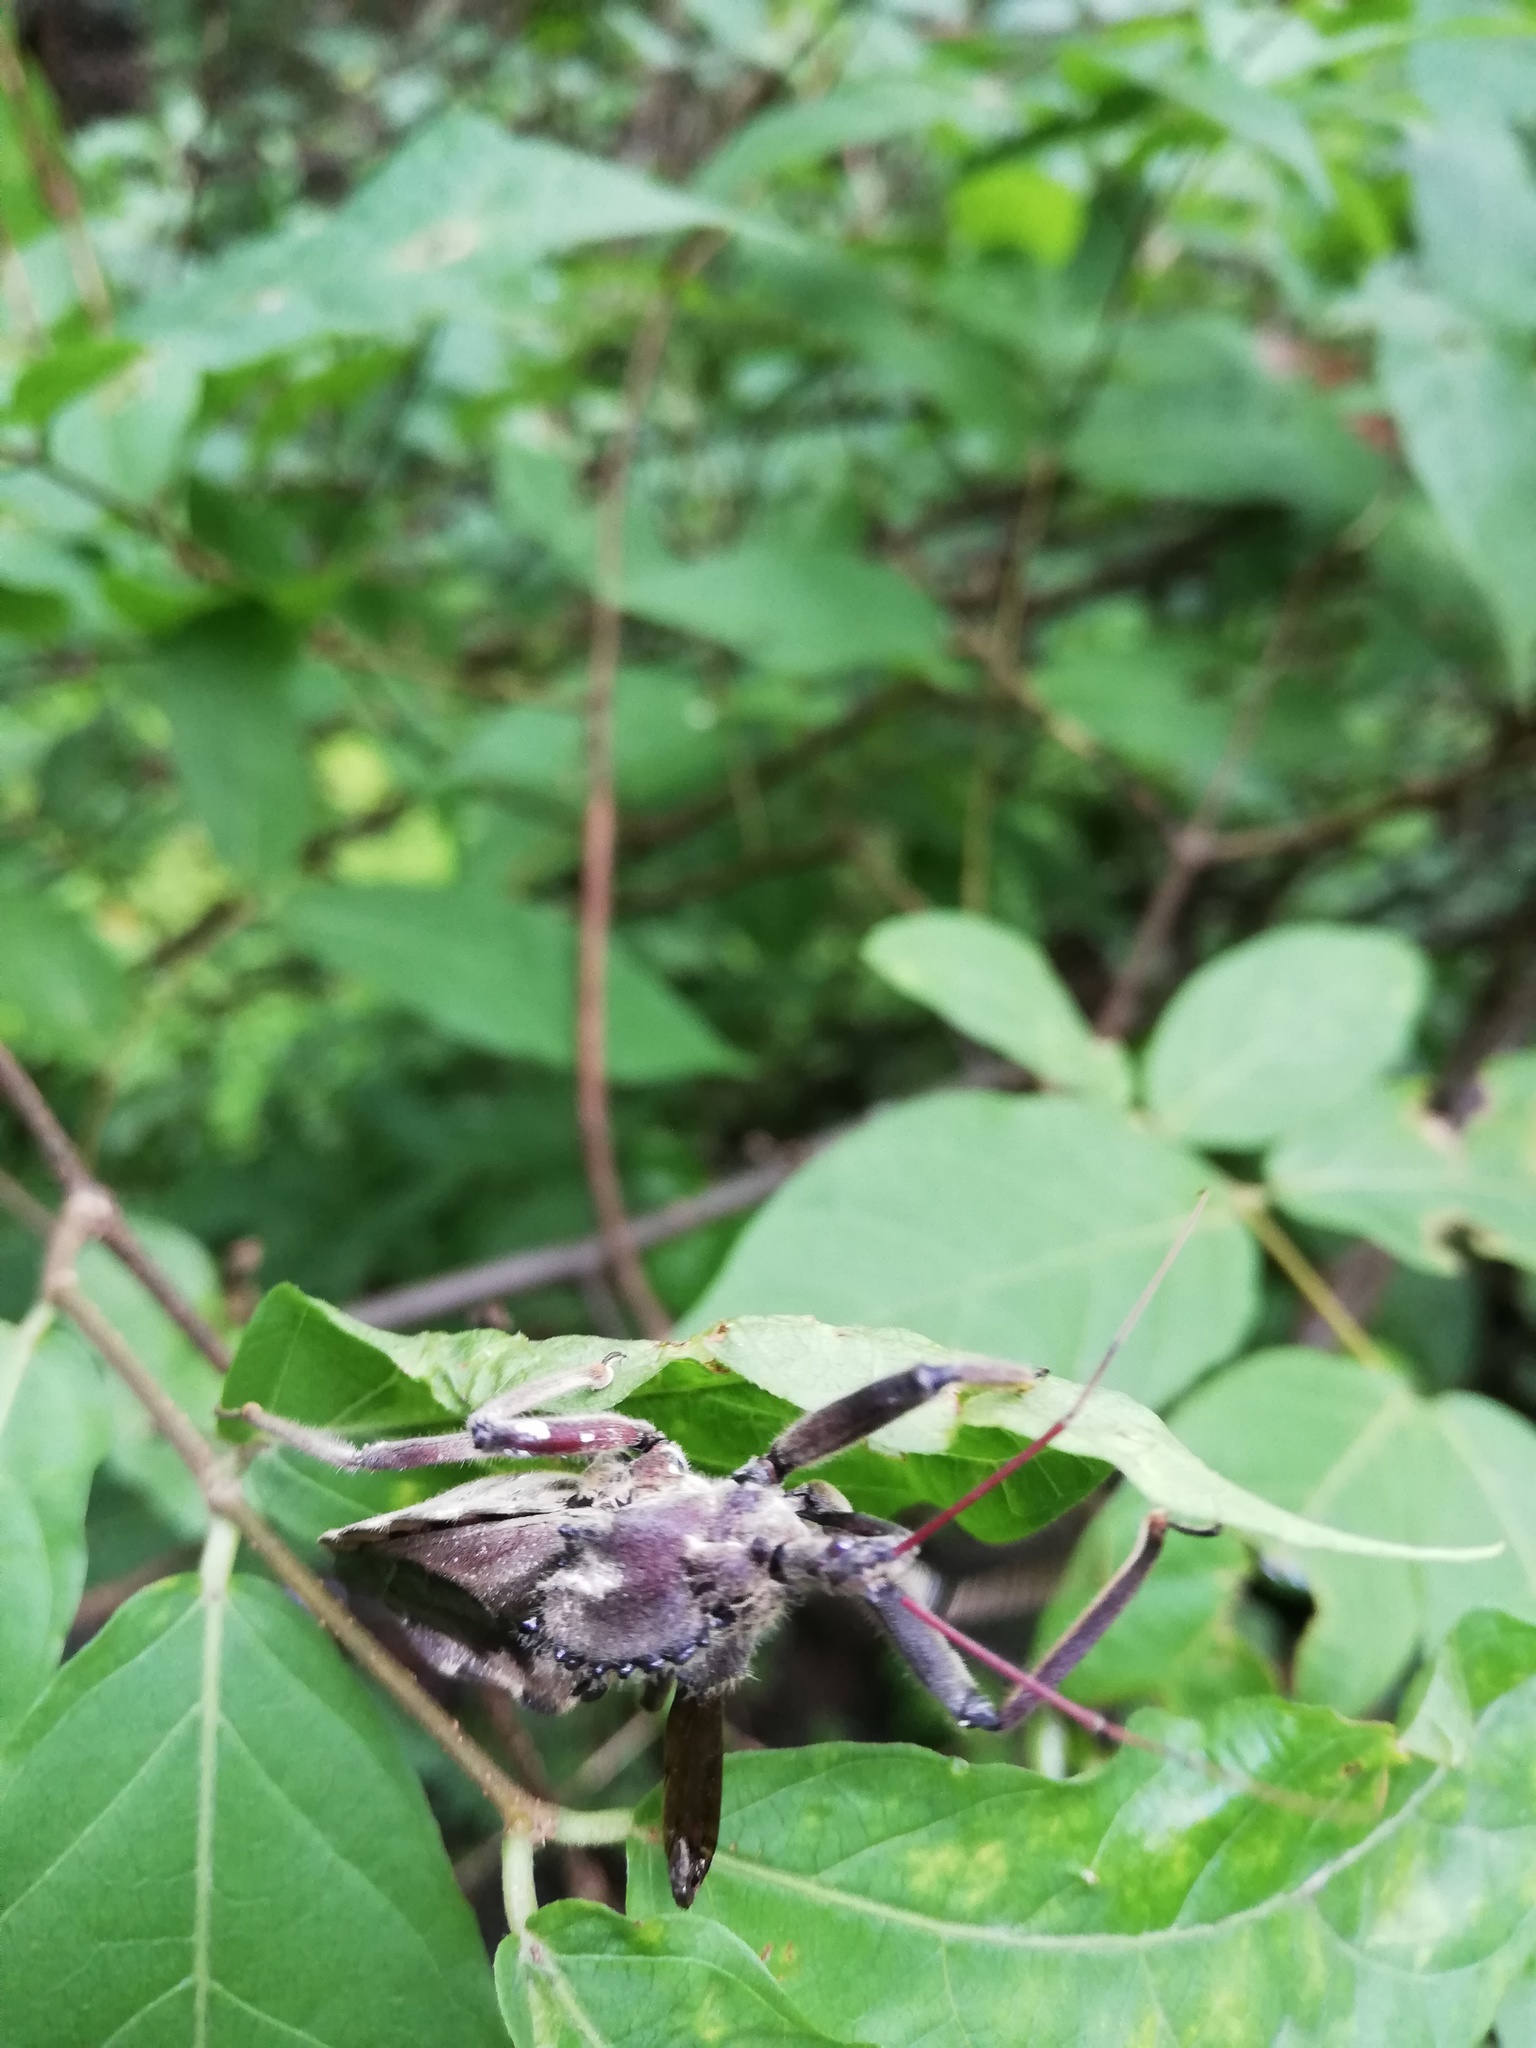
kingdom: Animalia
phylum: Arthropoda
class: Insecta
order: Hemiptera
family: Reduviidae
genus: Arilus
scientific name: Arilus cristatus
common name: North american wheel bug
